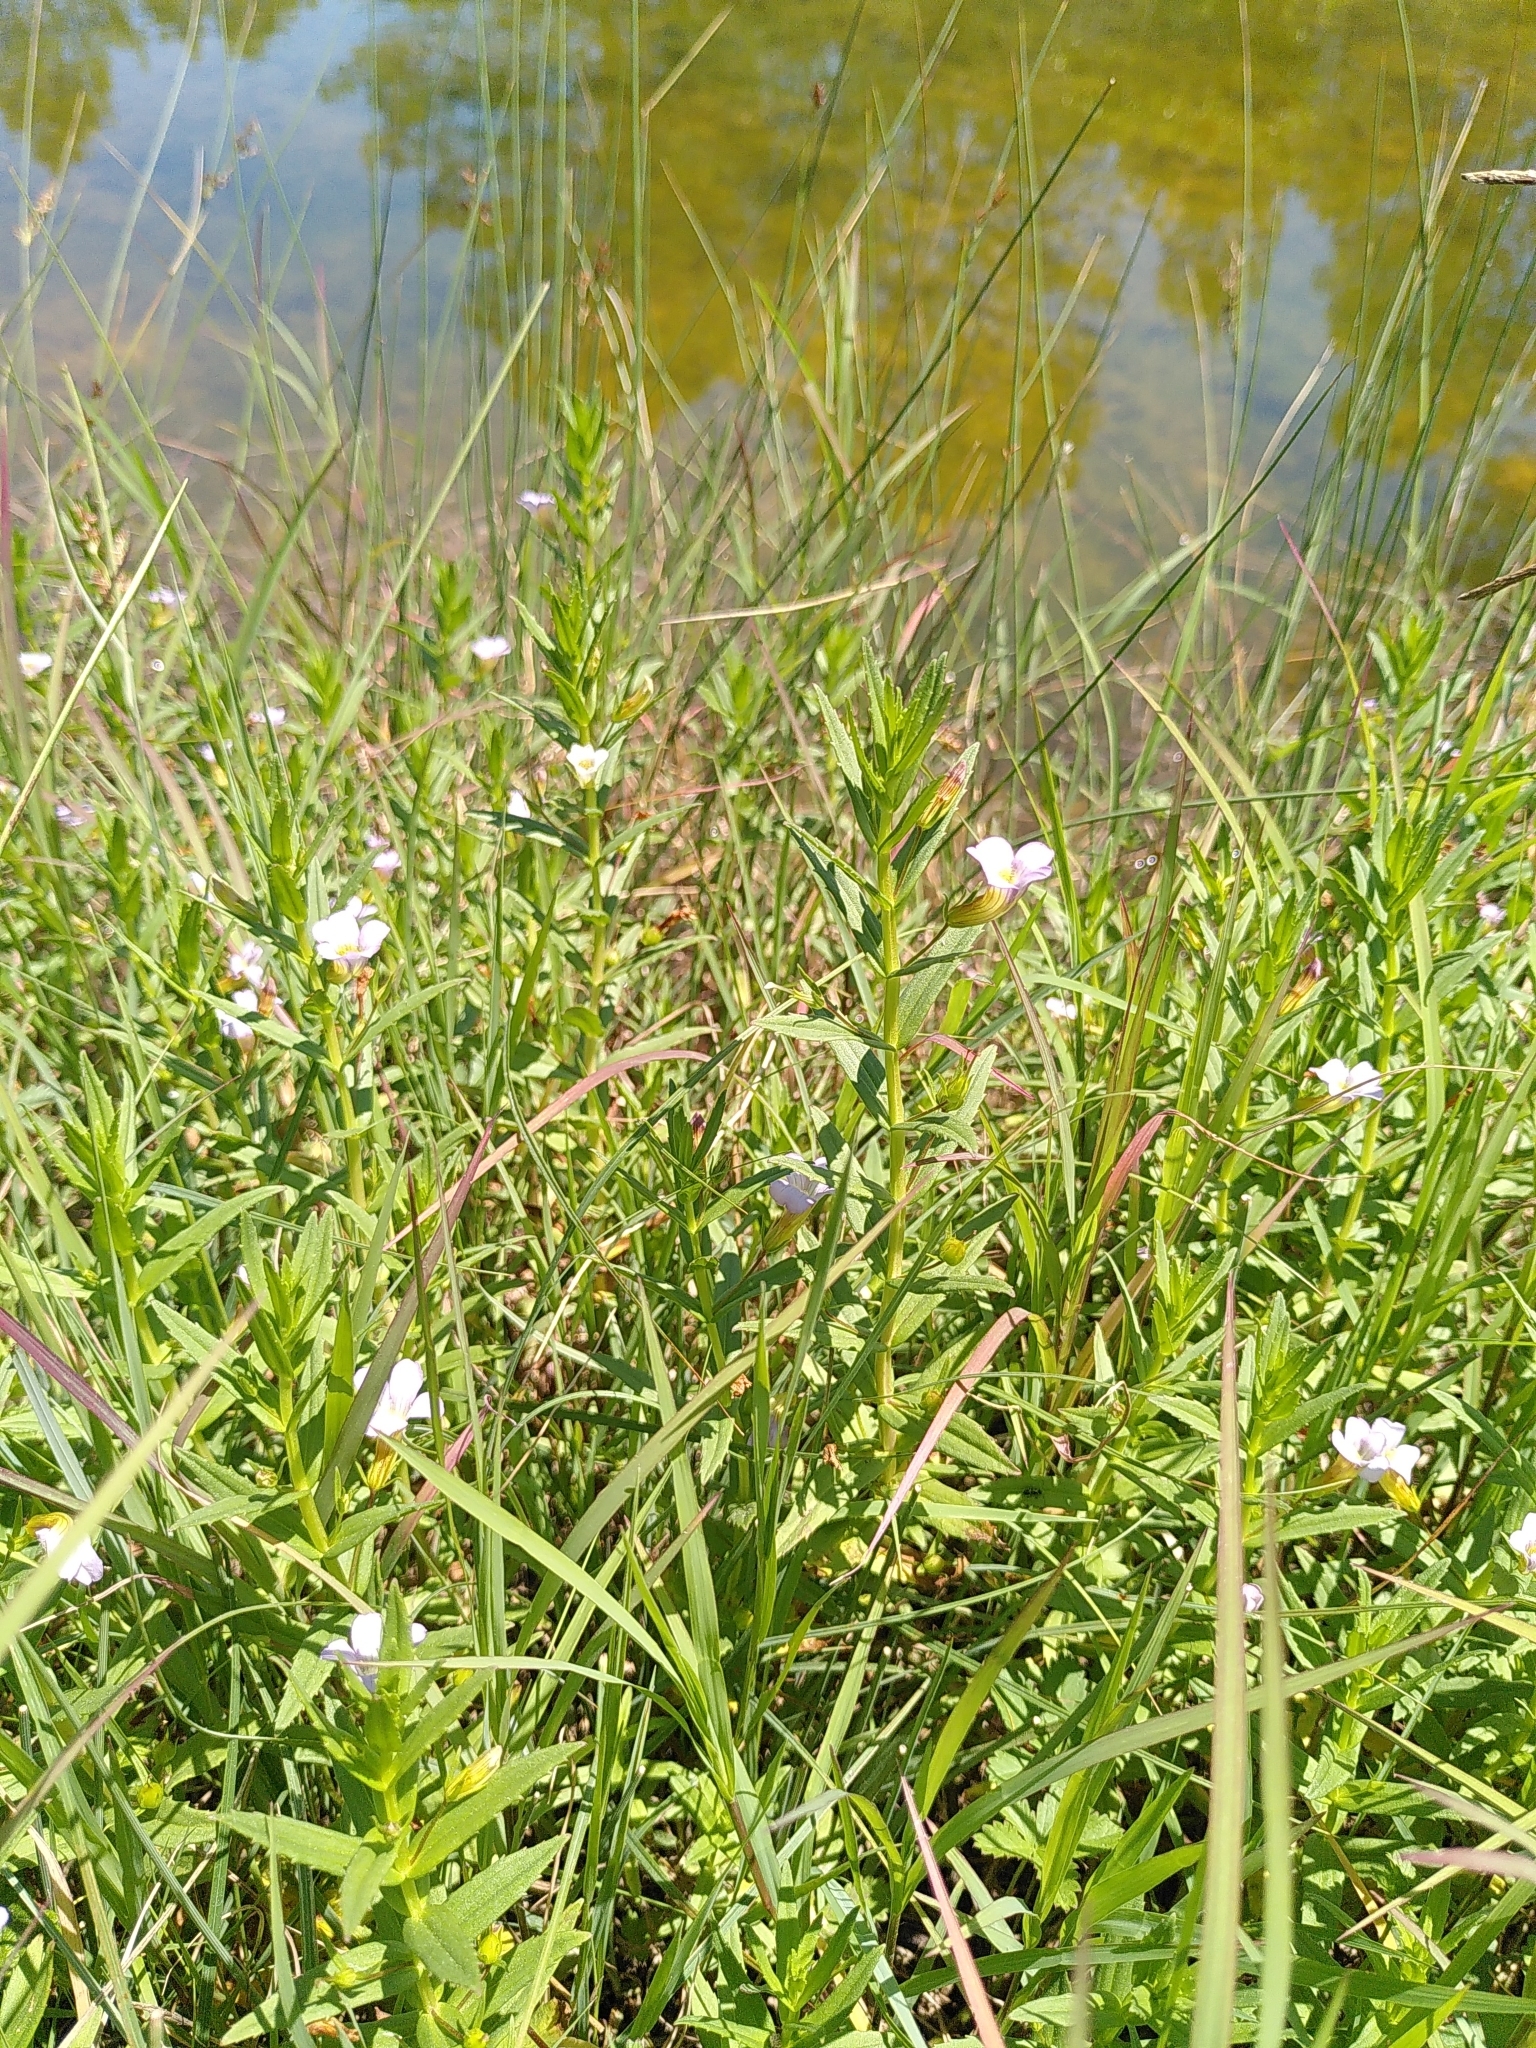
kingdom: Plantae
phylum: Tracheophyta
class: Magnoliopsida
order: Lamiales
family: Plantaginaceae
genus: Gratiola
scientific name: Gratiola officinalis
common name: Gratiola
